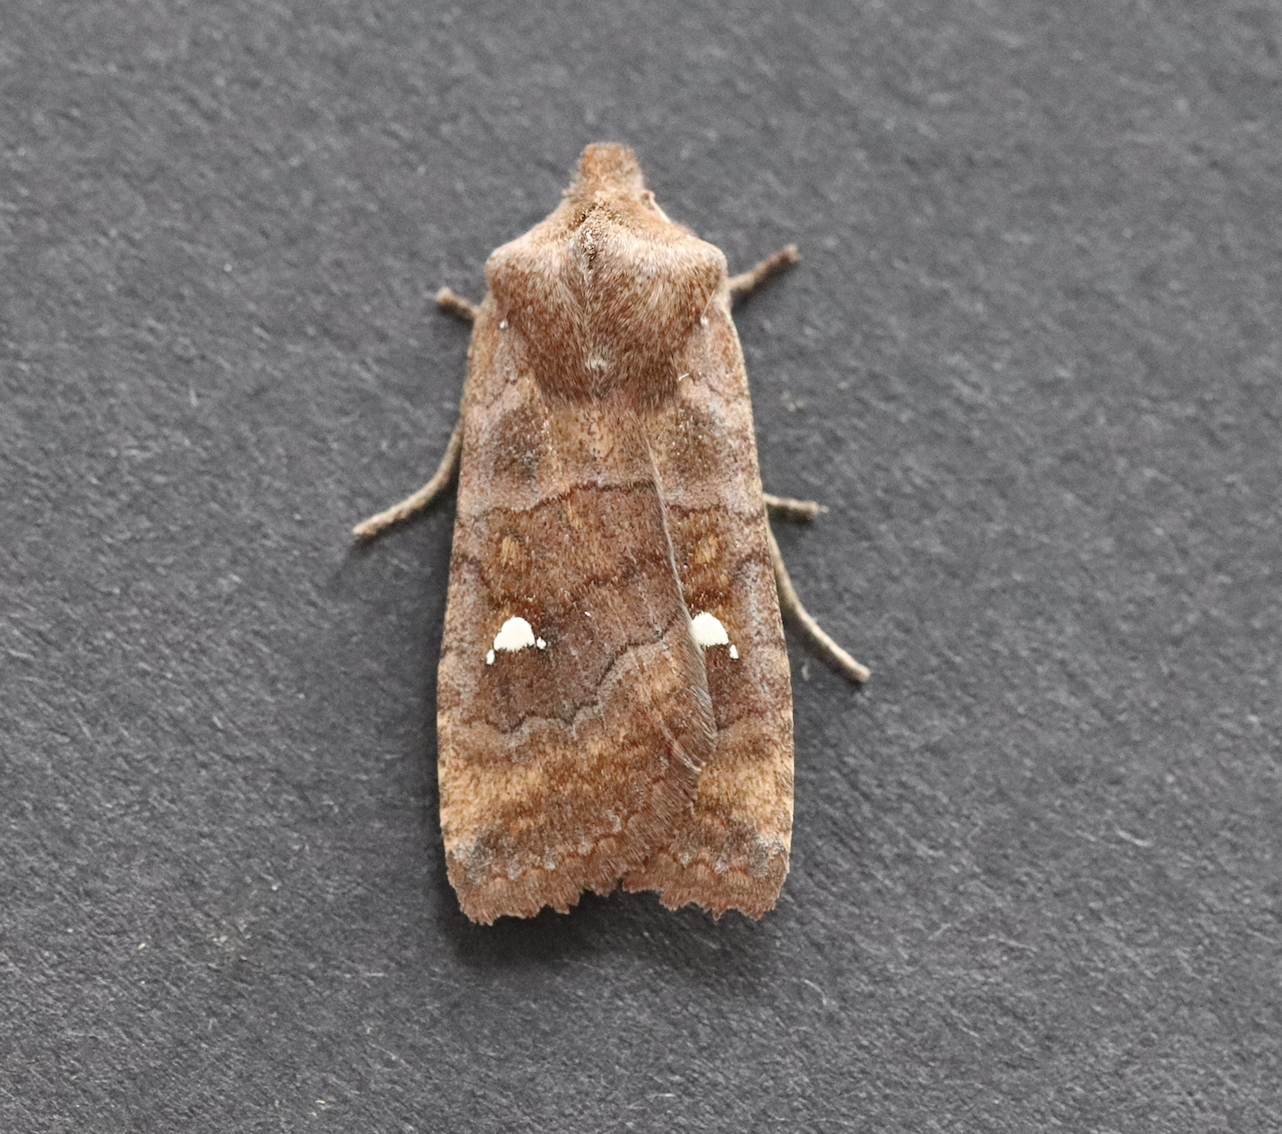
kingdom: Animalia
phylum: Arthropoda
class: Insecta
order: Lepidoptera
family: Noctuidae
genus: Eupsilia
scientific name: Eupsilia transversa
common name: Satellite
